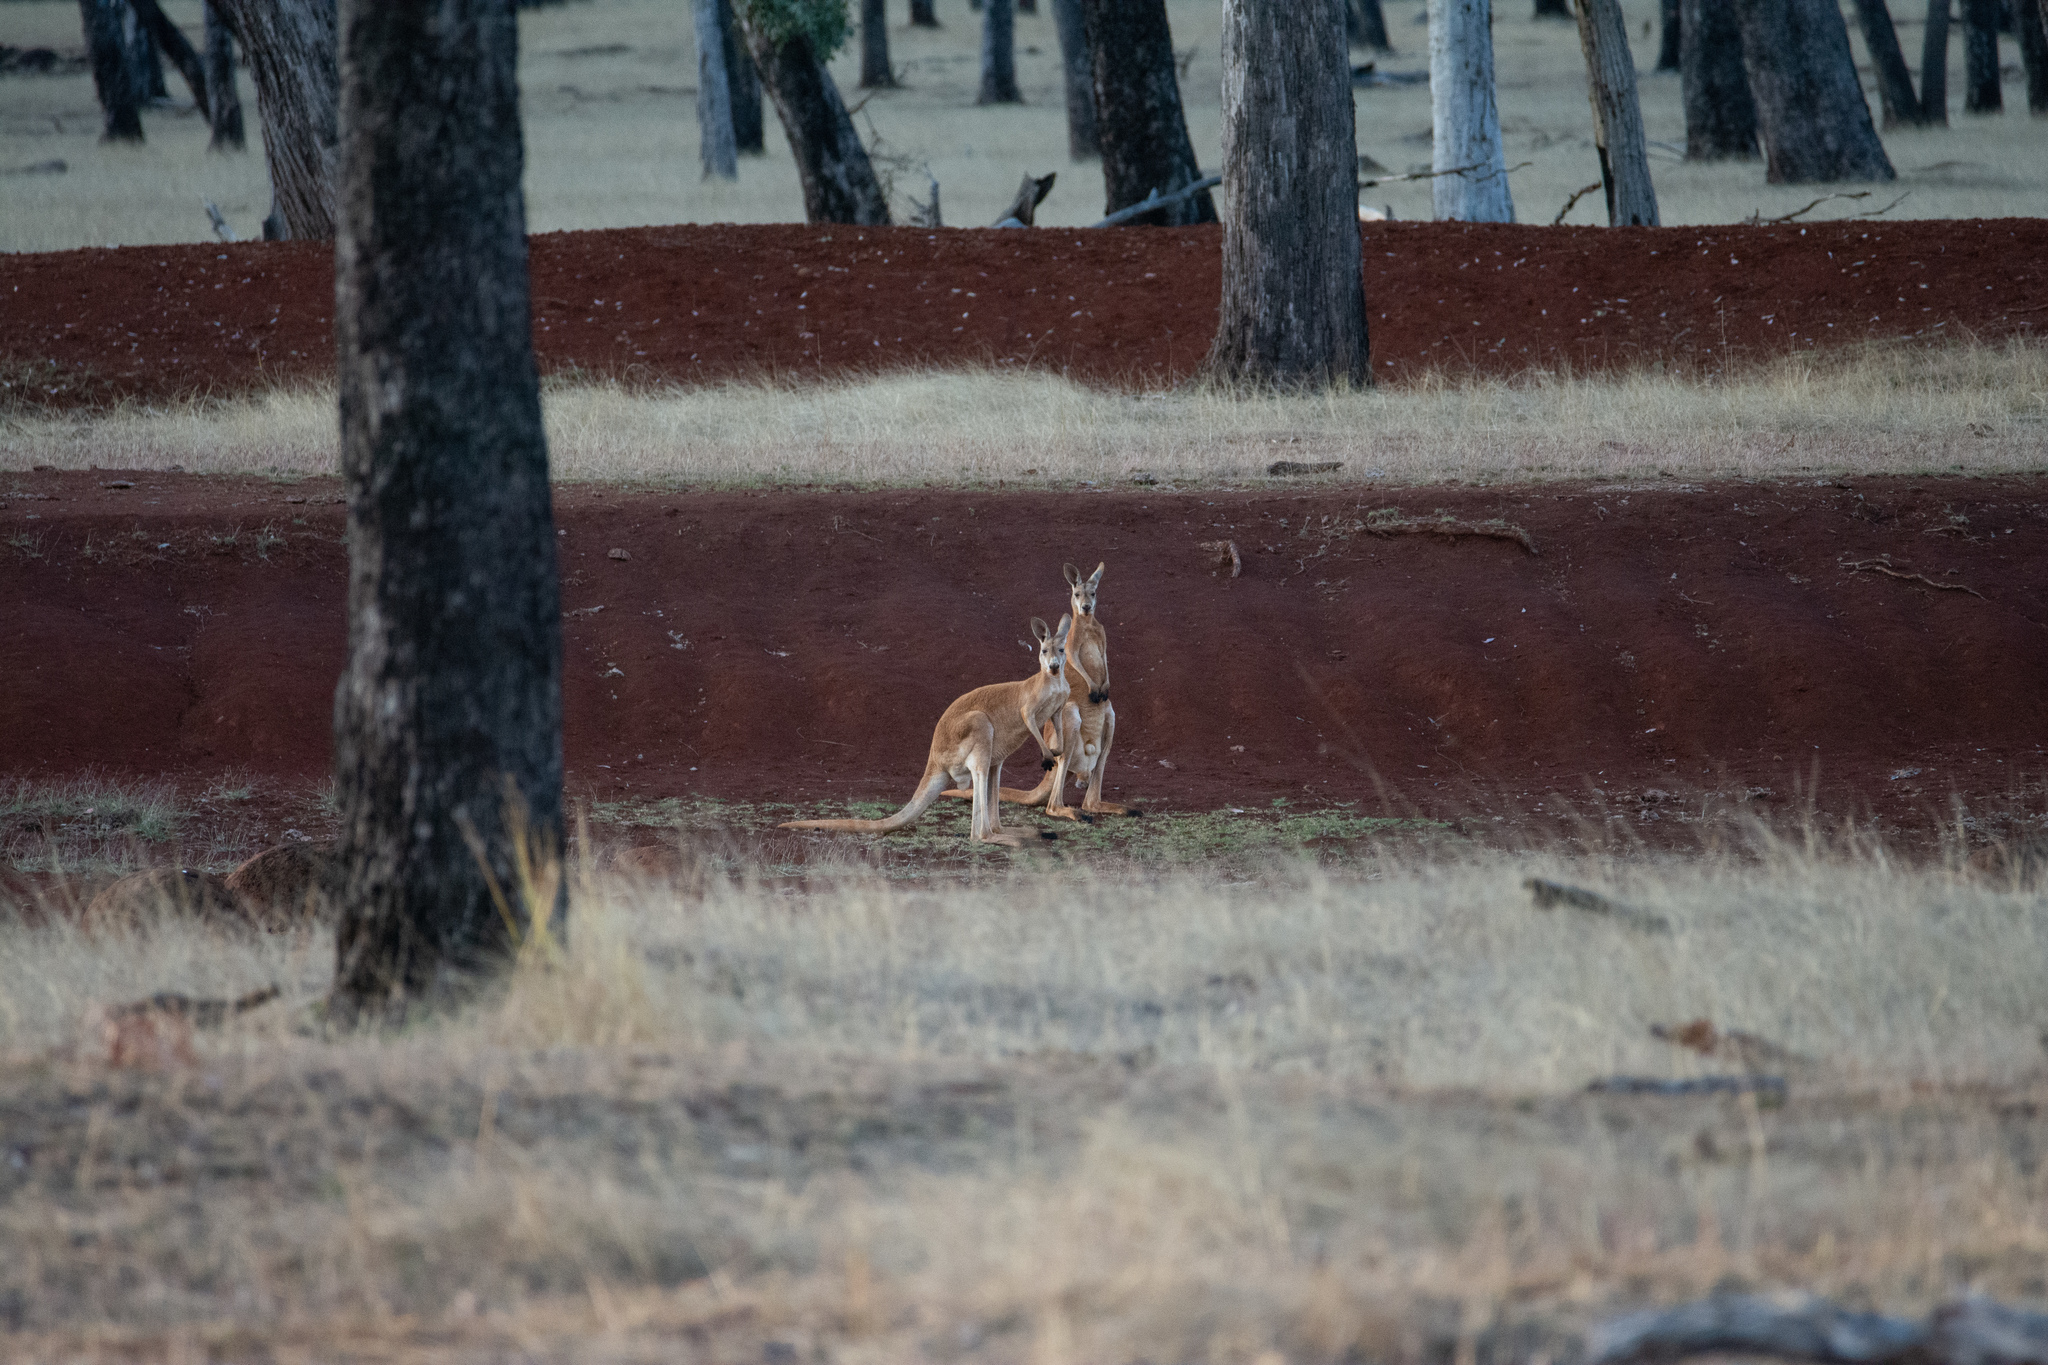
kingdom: Animalia
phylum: Chordata
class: Mammalia
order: Diprotodontia
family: Macropodidae
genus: Macropus
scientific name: Macropus rufus
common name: Red kangaroo
